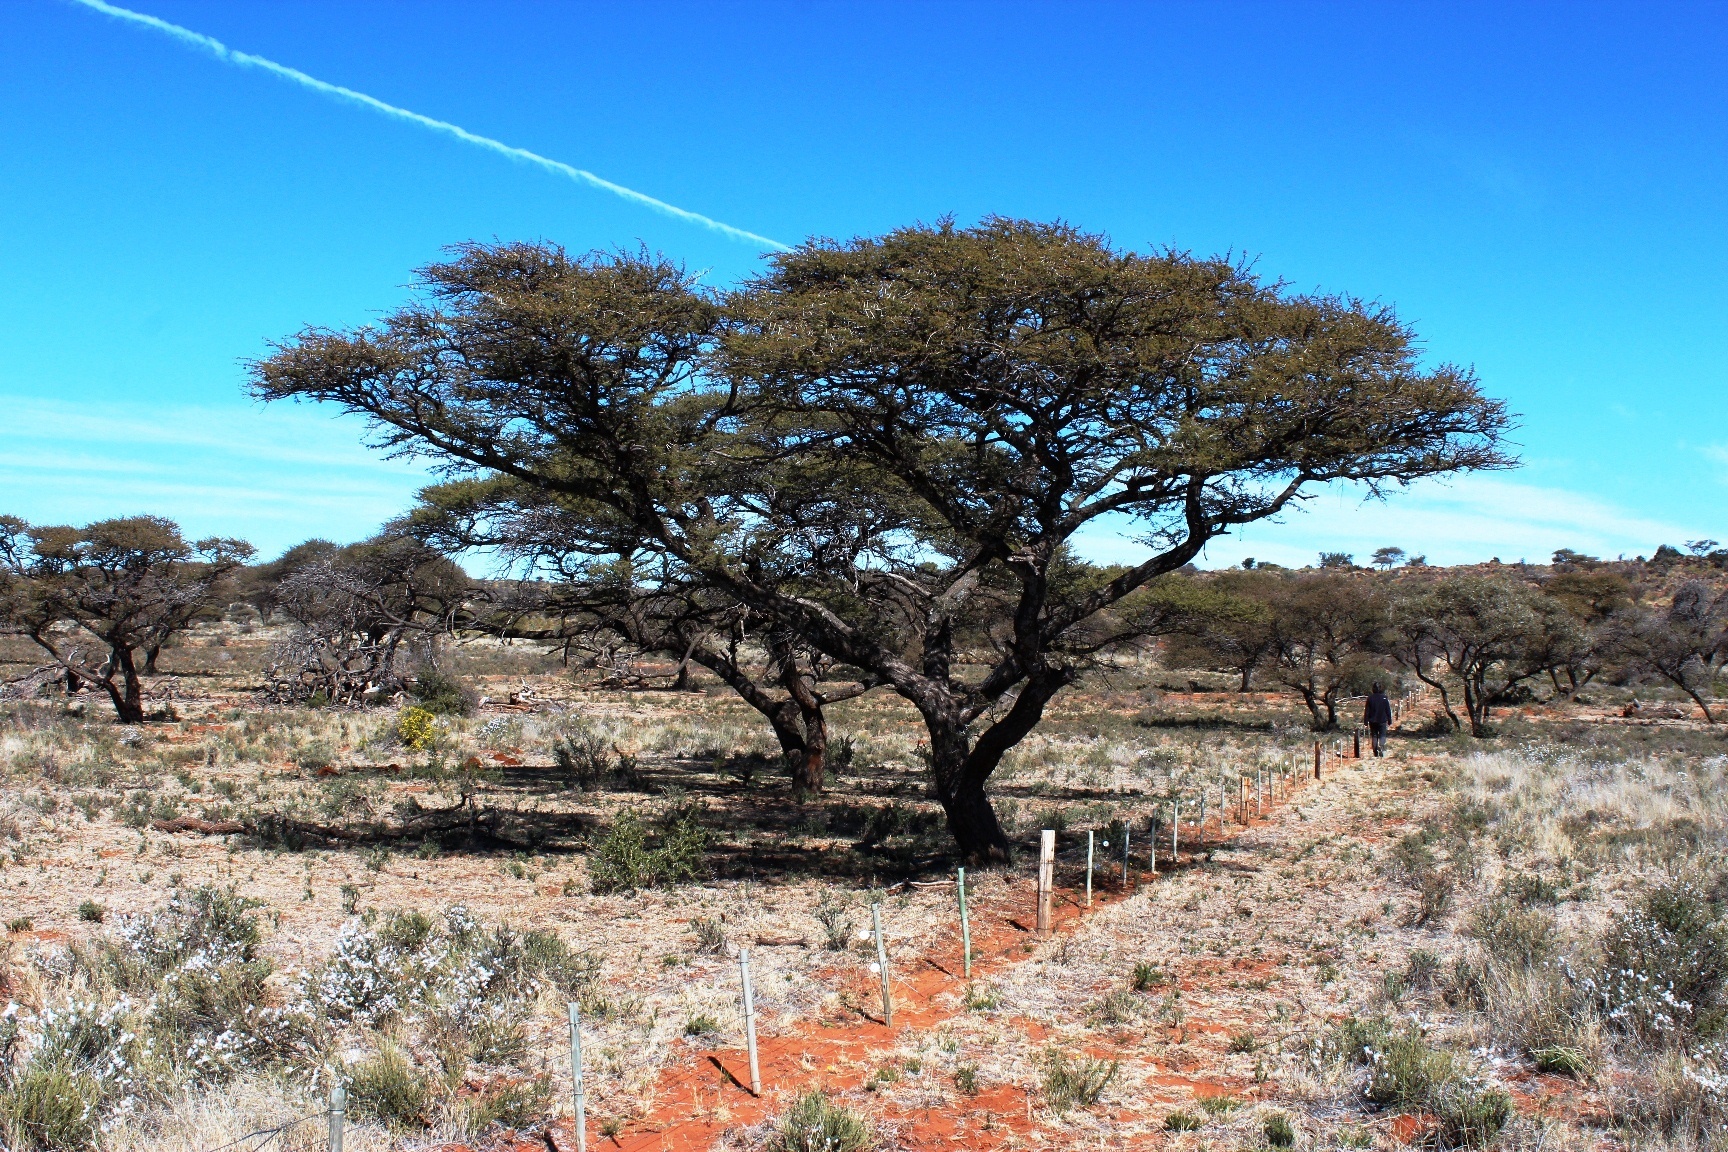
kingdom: Plantae
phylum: Tracheophyta
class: Magnoliopsida
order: Fabales
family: Fabaceae
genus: Vachellia
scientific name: Vachellia tortilis
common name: Umbrella thorn acacia
